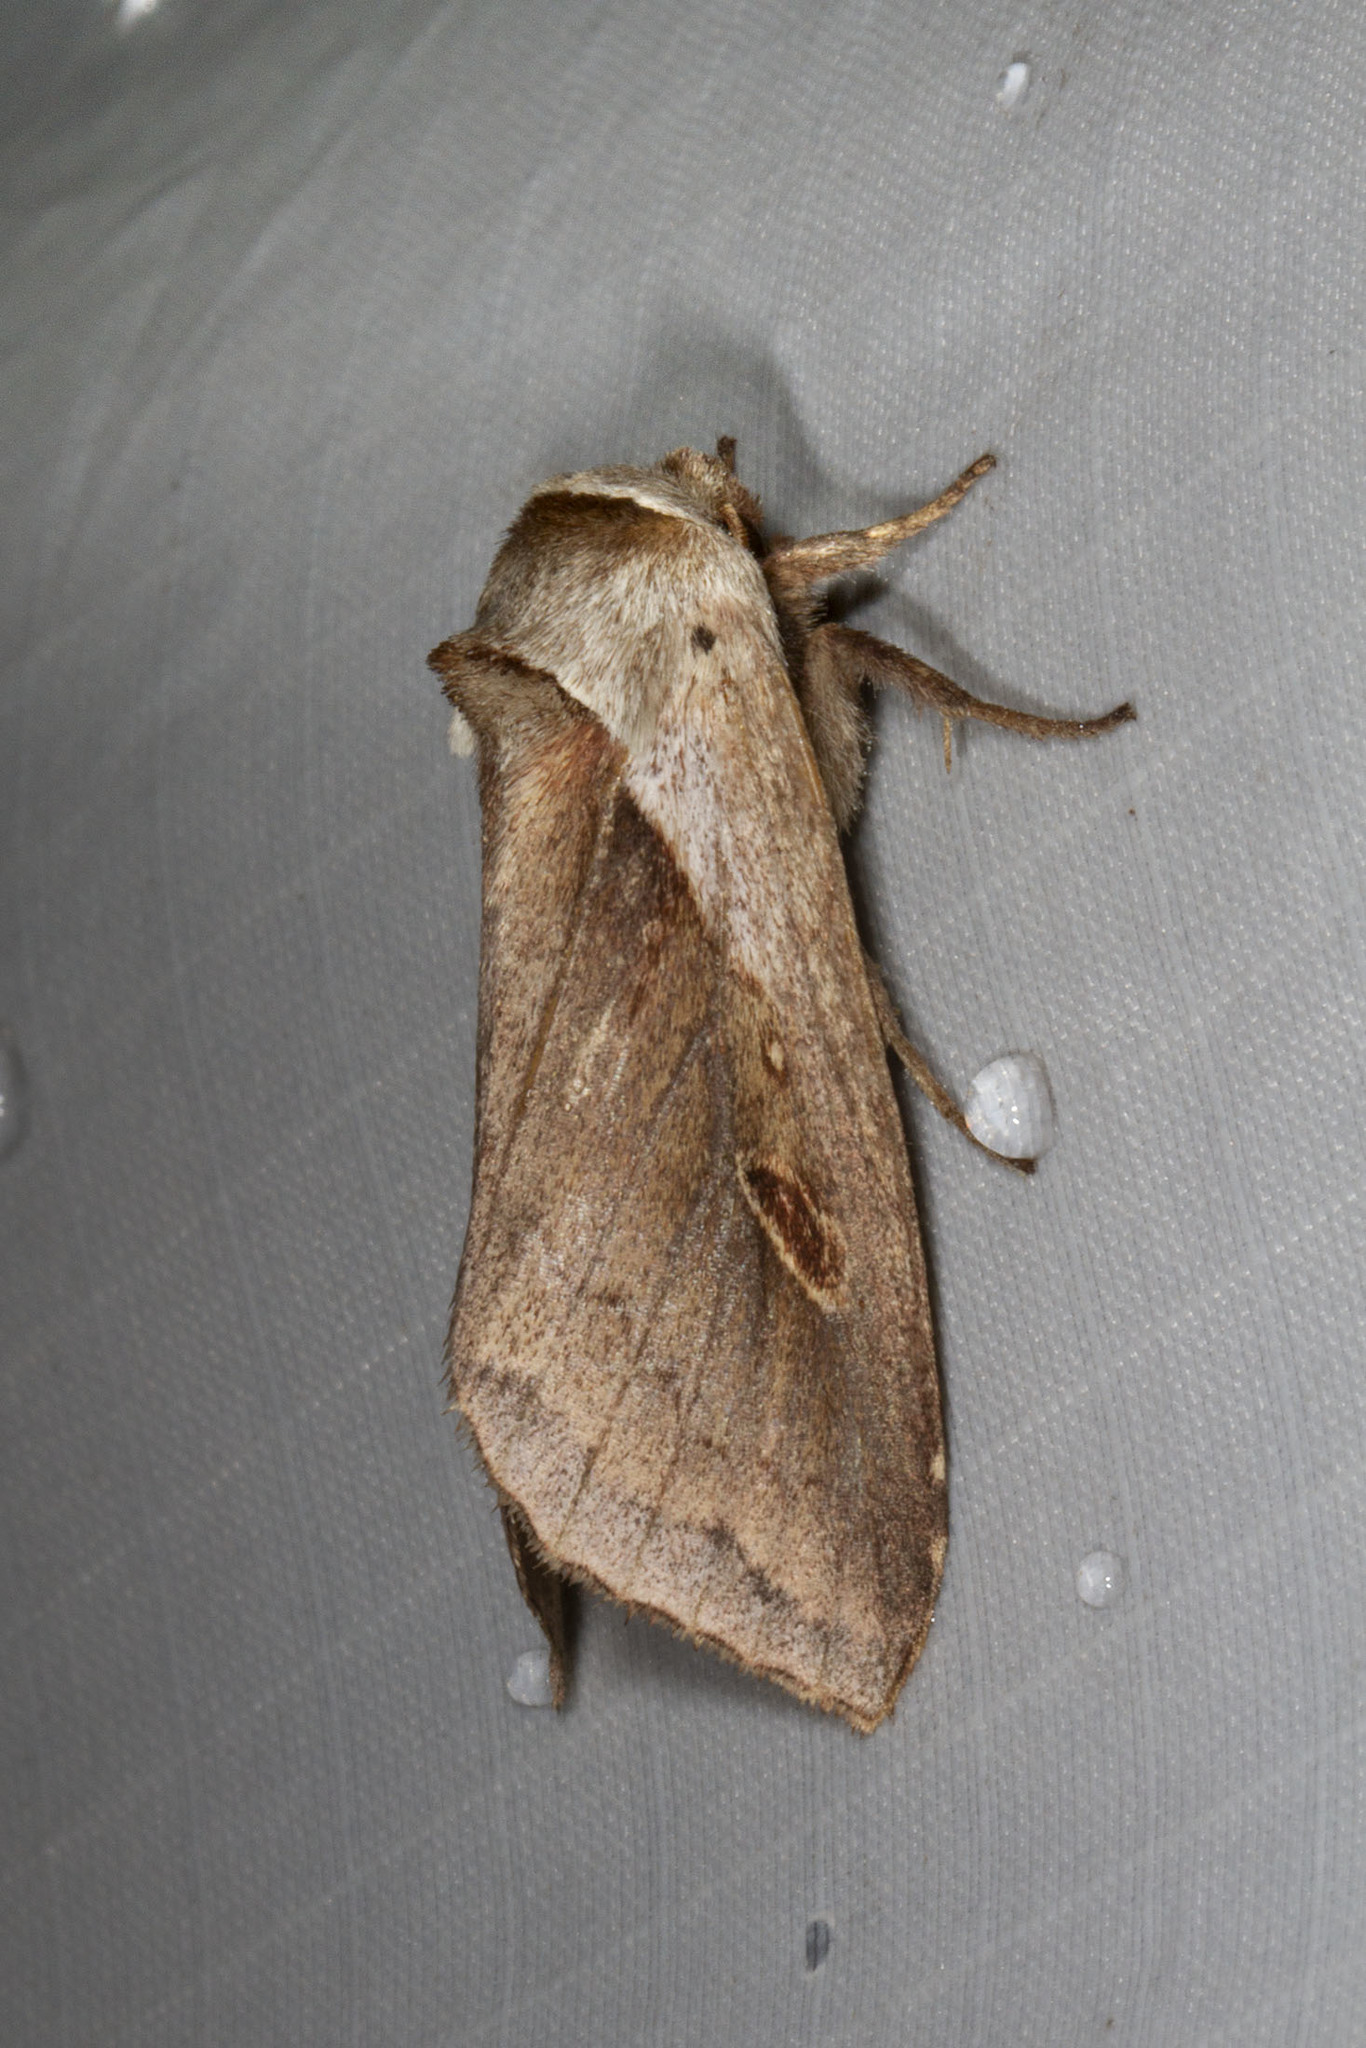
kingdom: Animalia
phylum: Arthropoda
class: Insecta
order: Lepidoptera
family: Noctuidae
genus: Bellura
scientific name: Bellura obliqua
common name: Cattail borer moth
